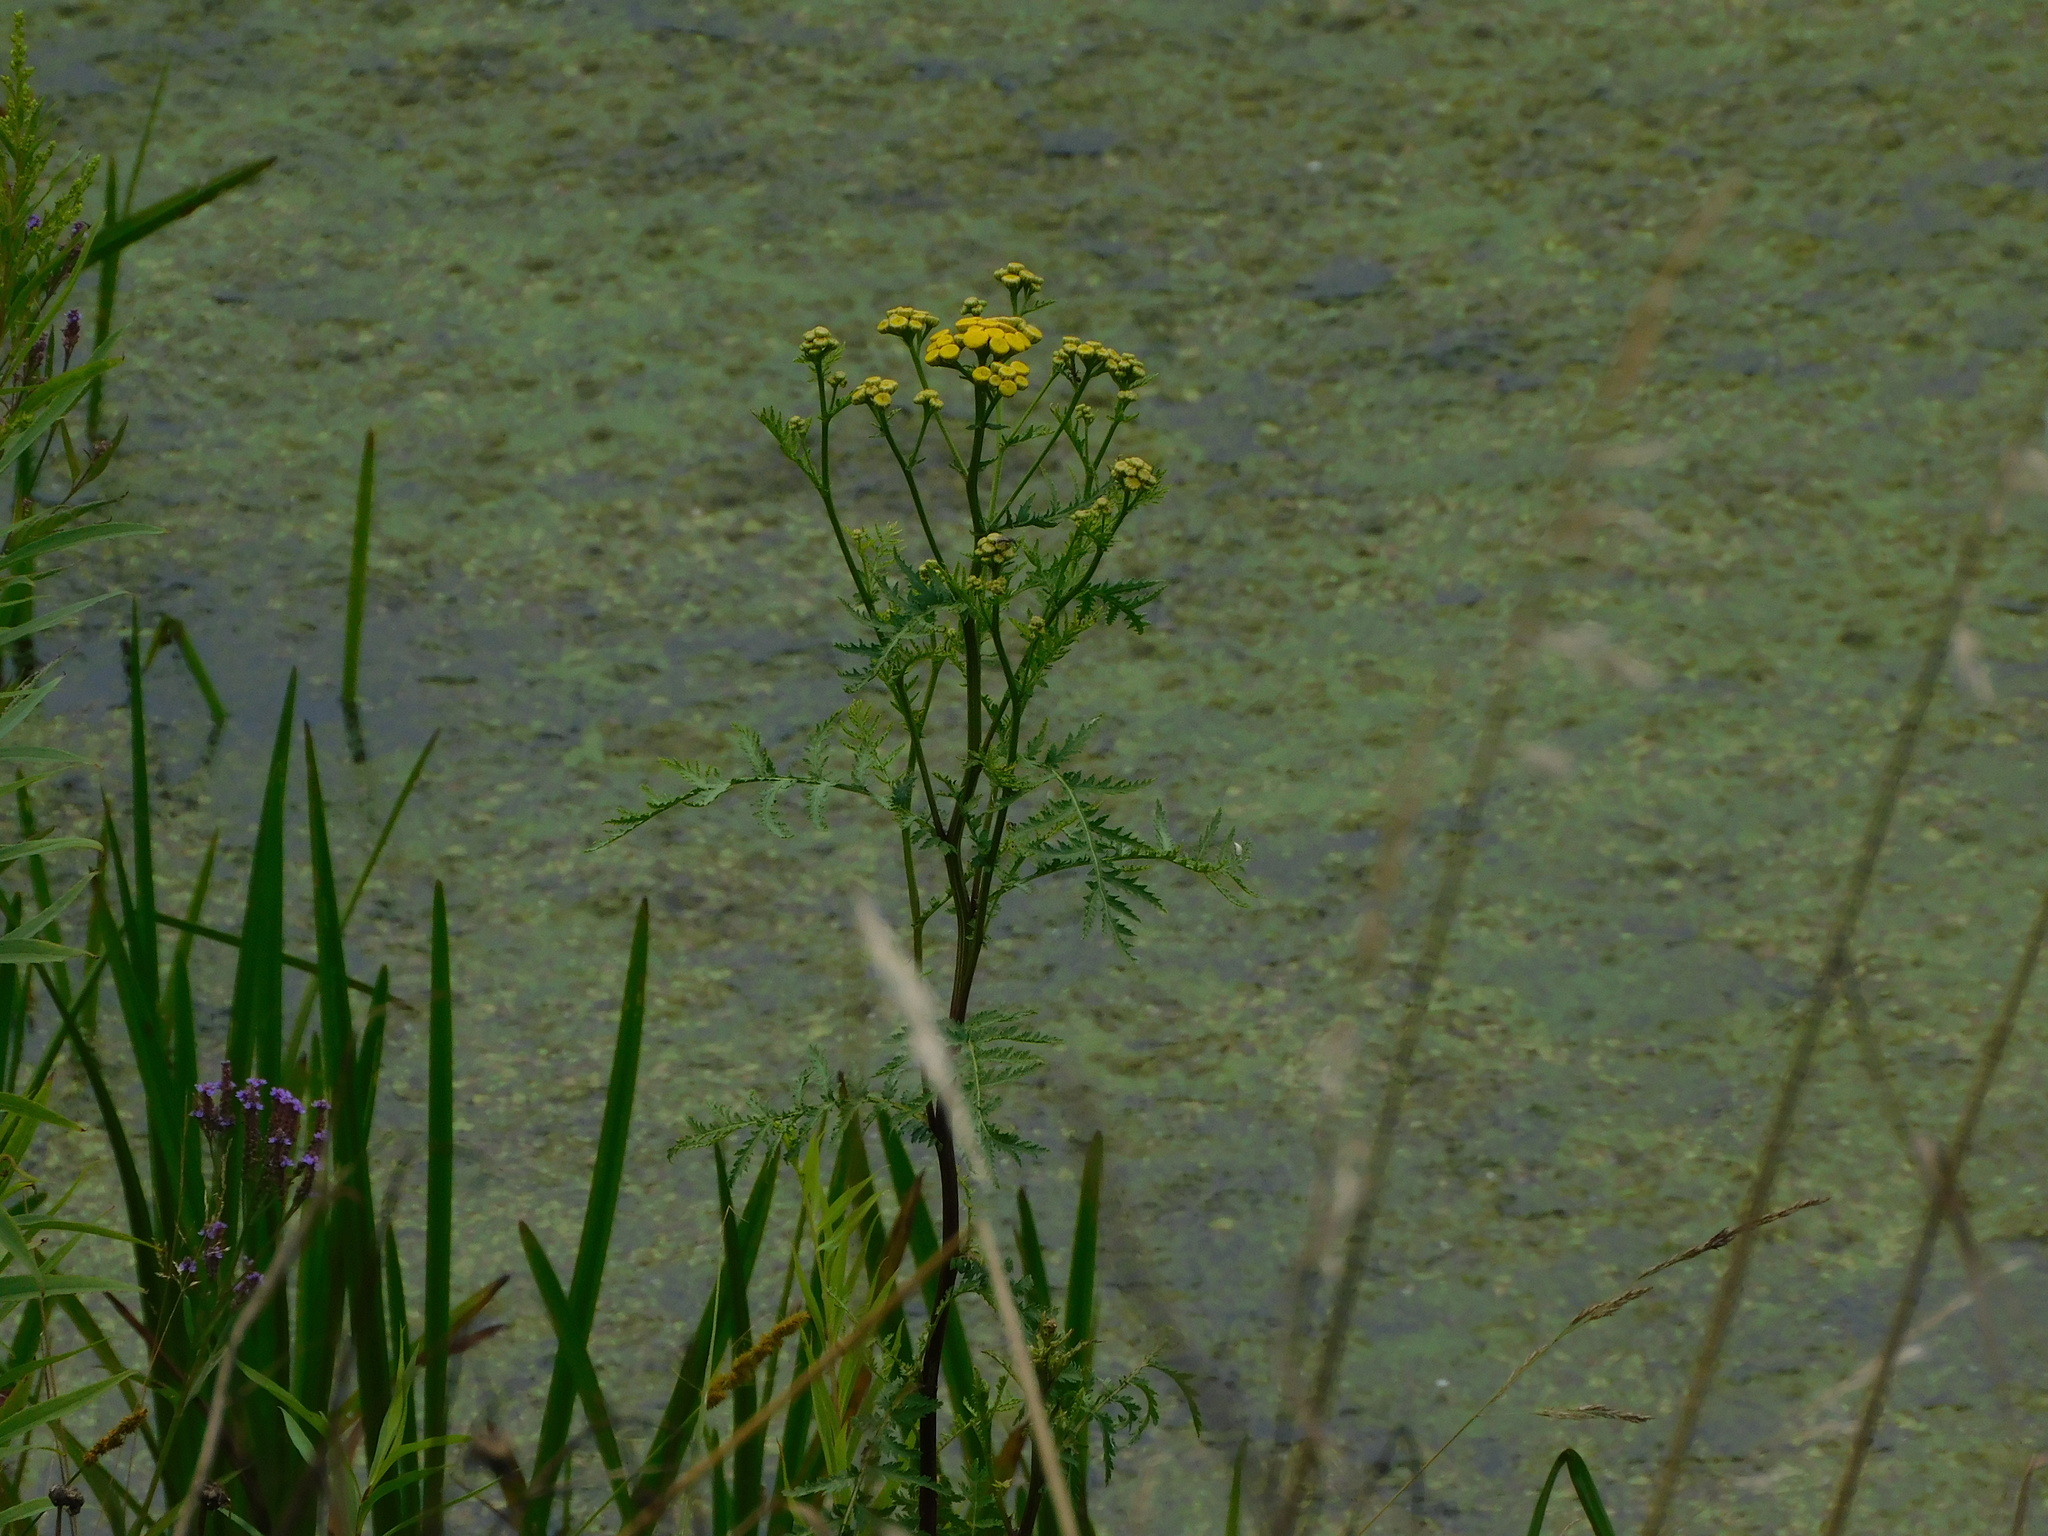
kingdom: Plantae
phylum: Tracheophyta
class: Magnoliopsida
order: Asterales
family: Asteraceae
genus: Tanacetum
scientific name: Tanacetum vulgare
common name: Common tansy
